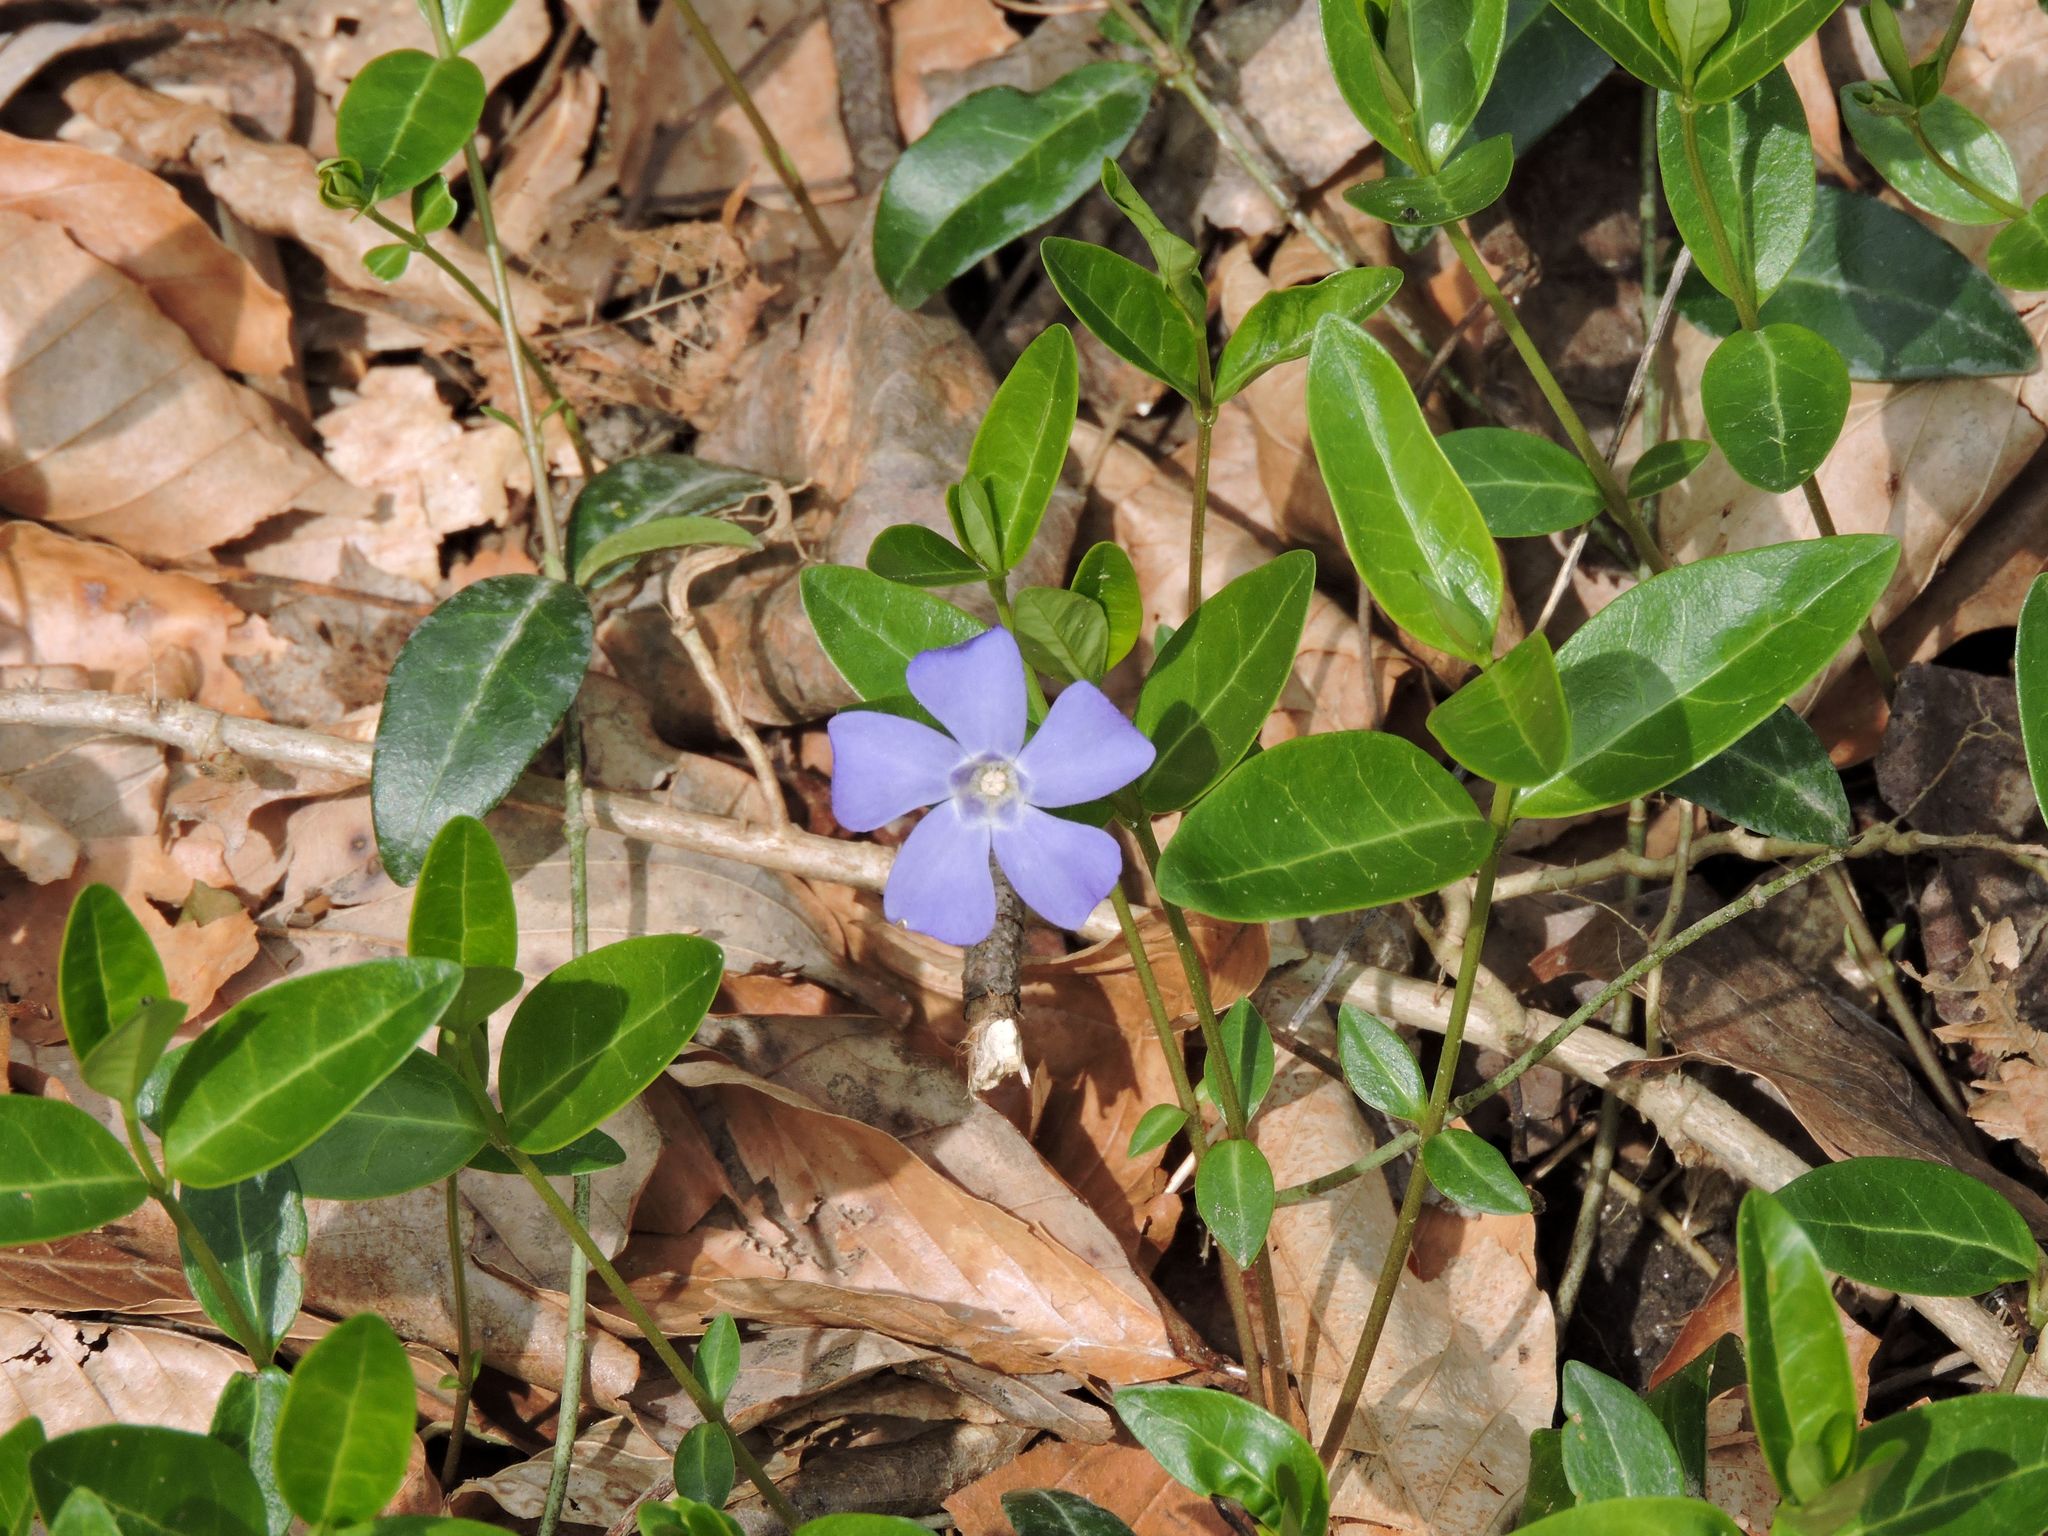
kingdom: Plantae
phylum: Tracheophyta
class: Magnoliopsida
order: Gentianales
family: Apocynaceae
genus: Vinca
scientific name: Vinca minor
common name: Lesser periwinkle
